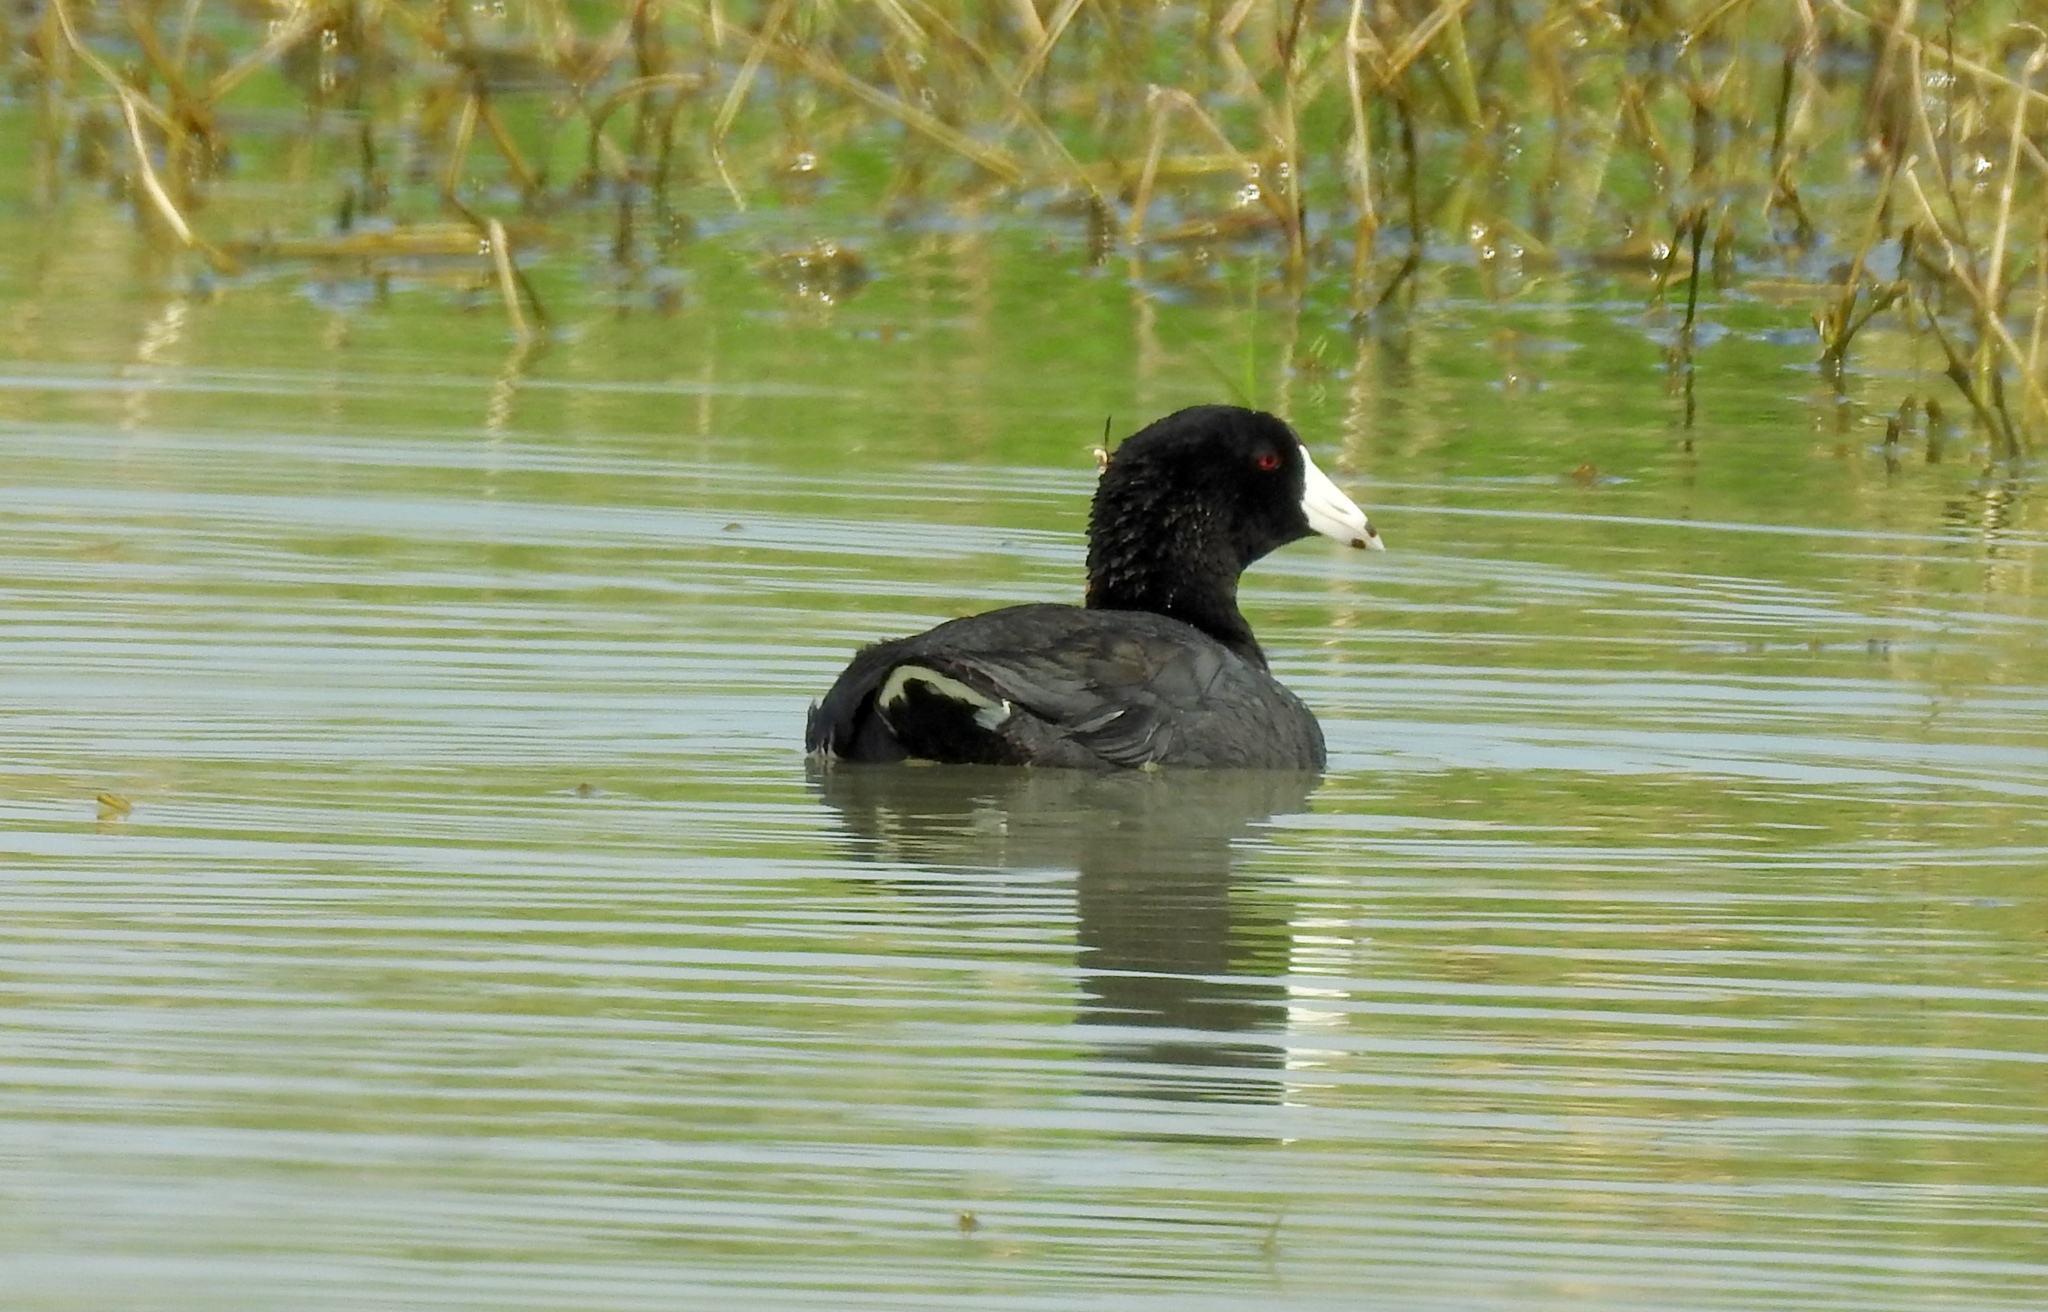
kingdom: Animalia
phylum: Chordata
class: Aves
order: Gruiformes
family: Rallidae
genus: Fulica
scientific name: Fulica americana
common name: American coot
